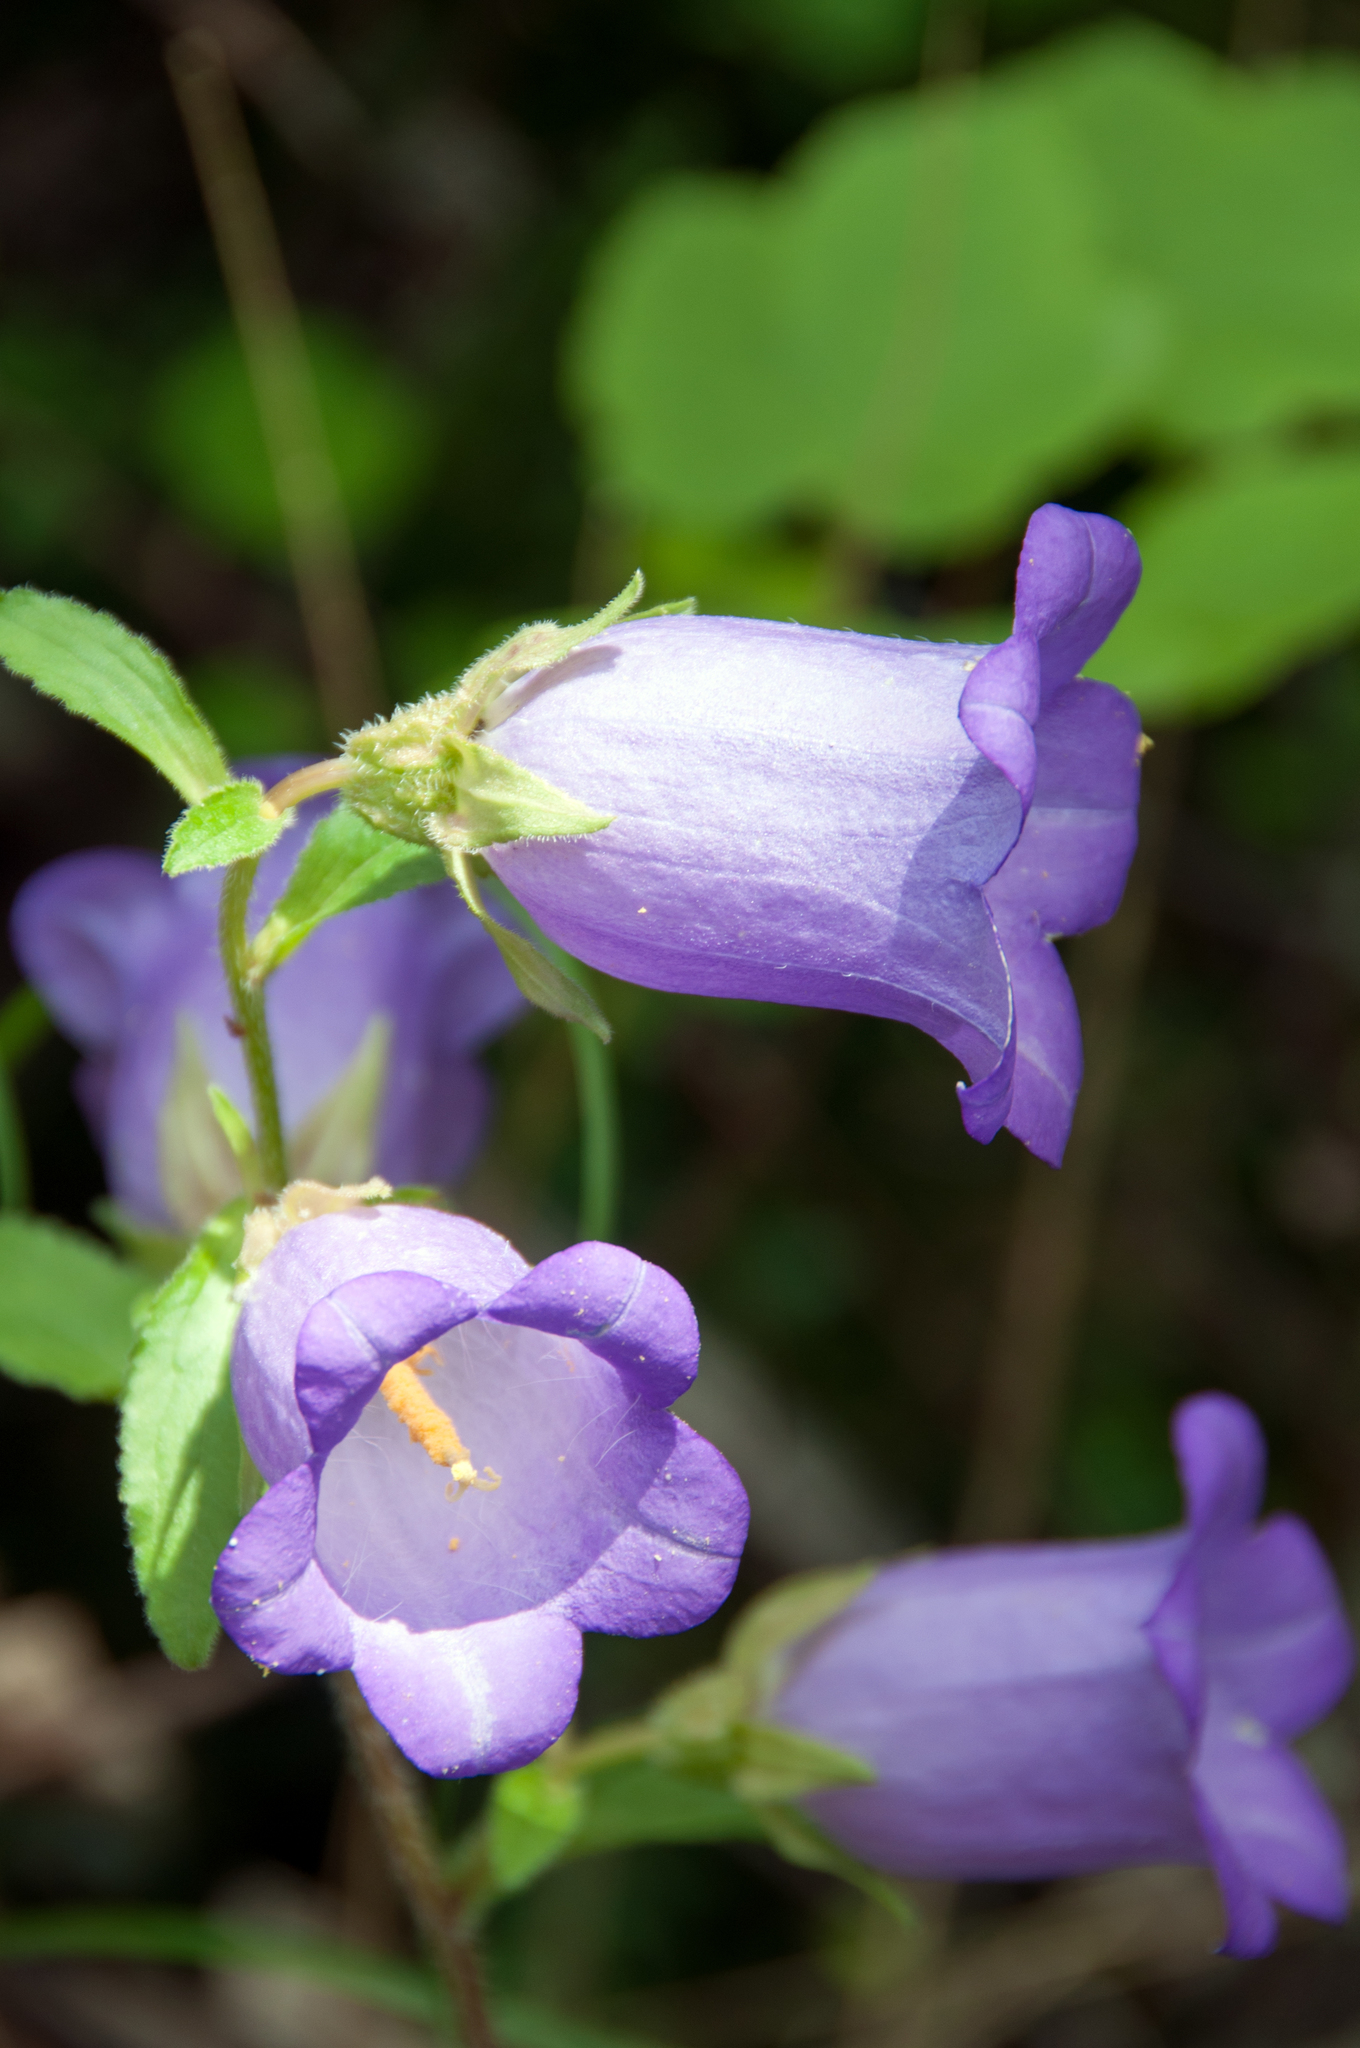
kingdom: Plantae
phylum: Tracheophyta
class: Magnoliopsida
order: Asterales
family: Campanulaceae
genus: Campanula
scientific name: Campanula medium
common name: Canterbury bells
